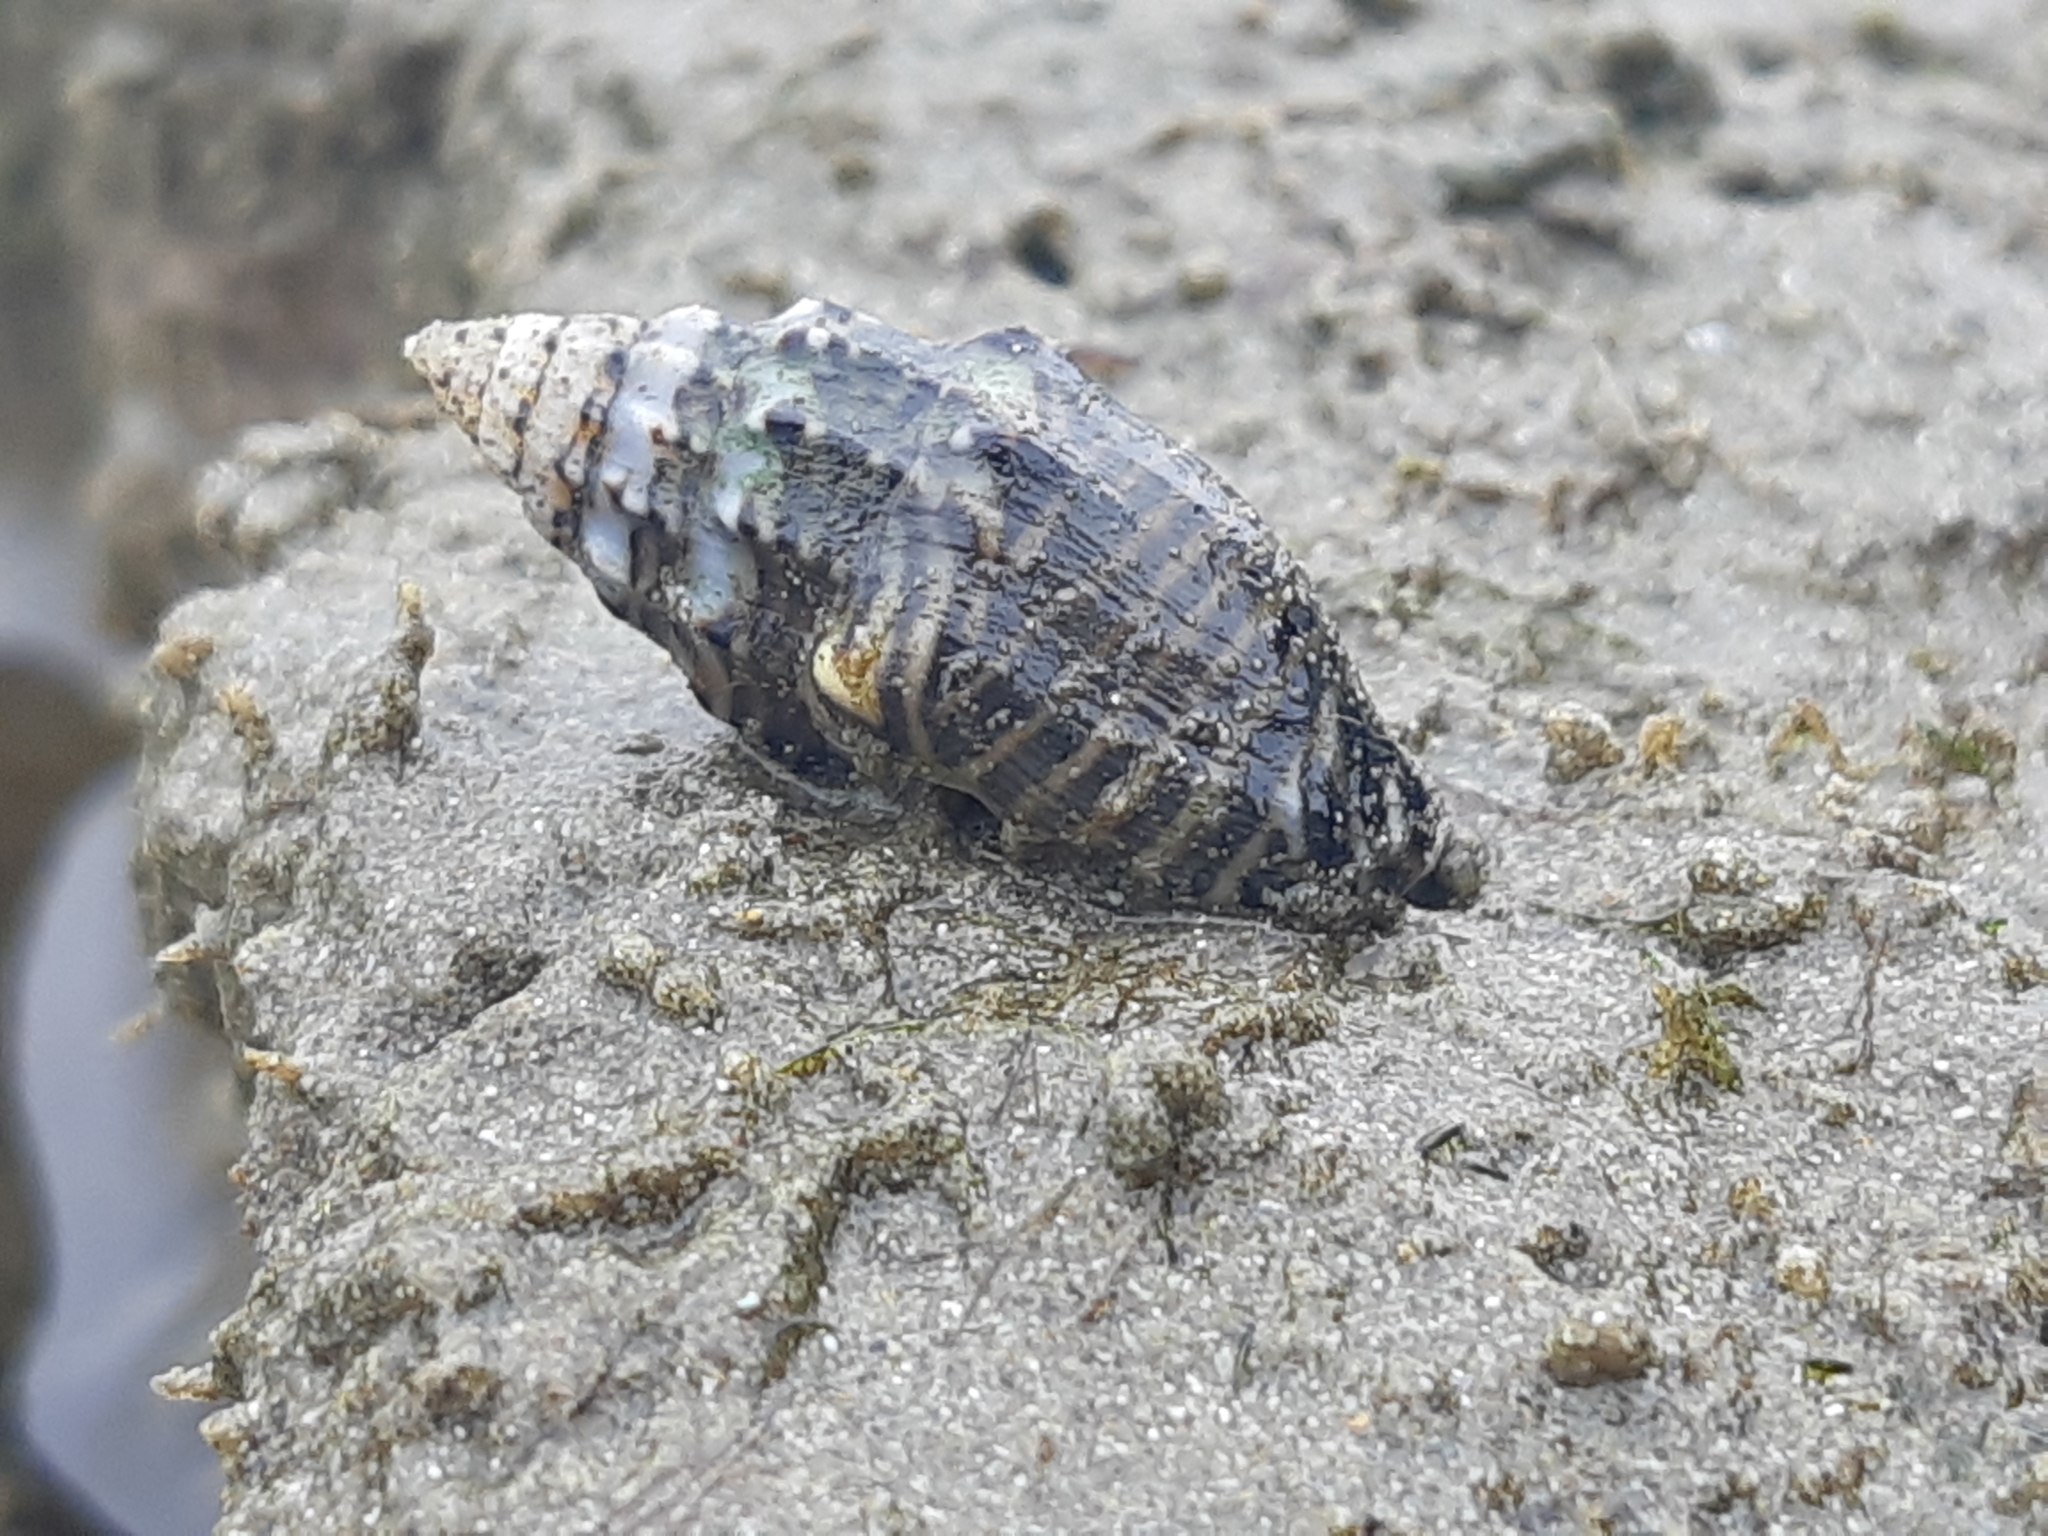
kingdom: Animalia
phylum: Mollusca
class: Gastropoda
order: Neogastropoda
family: Columbellidae
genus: Anachis
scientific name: Anachis fluctuata
